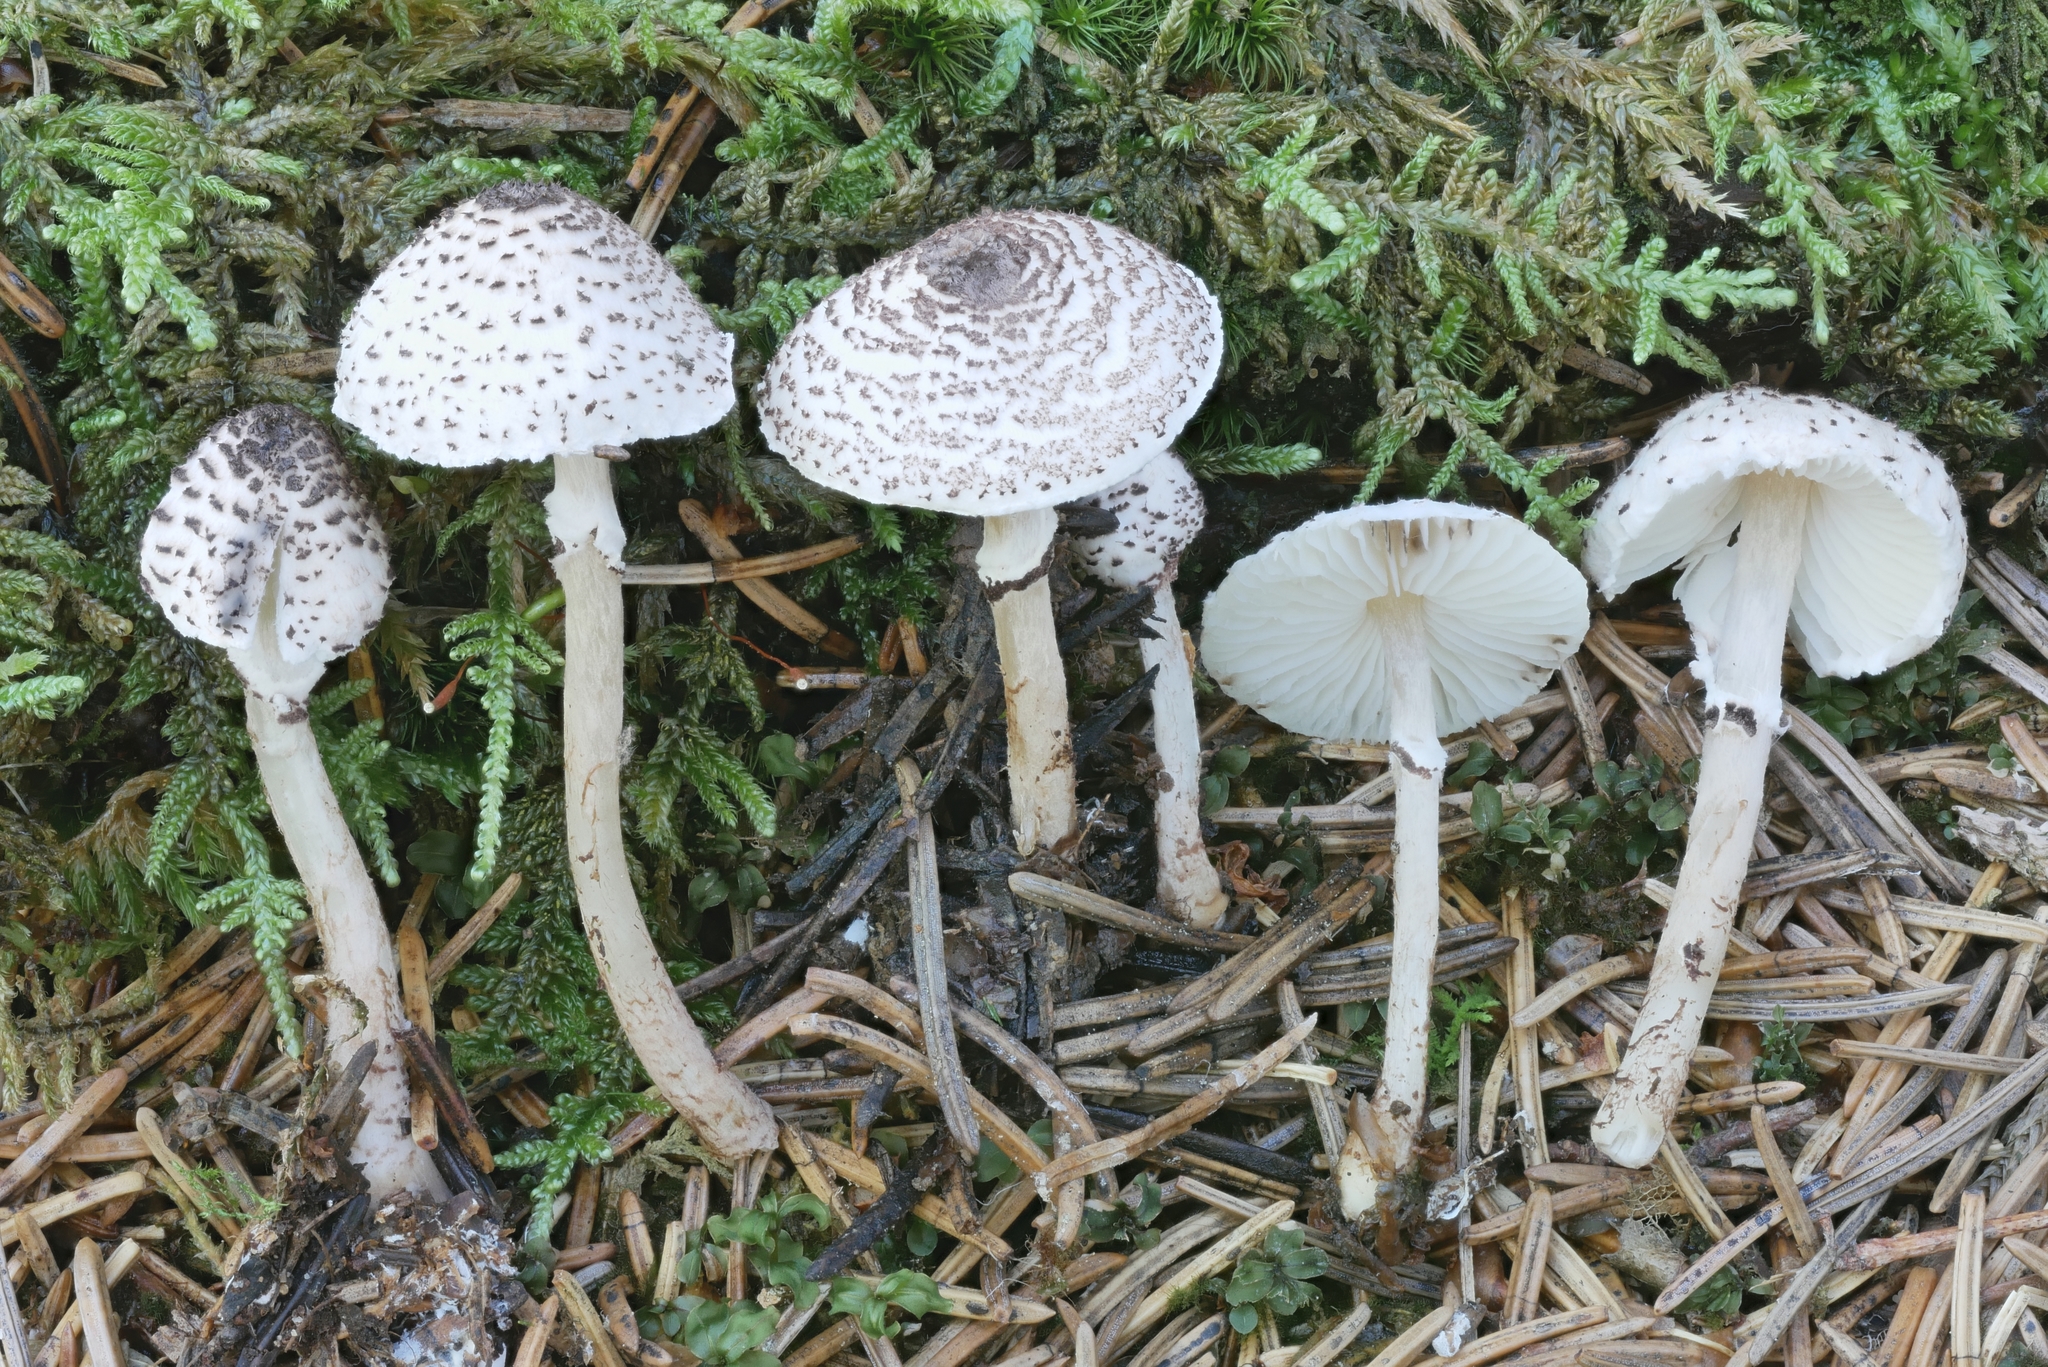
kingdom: Fungi
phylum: Basidiomycota
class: Agaricomycetes
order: Agaricales
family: Agaricaceae
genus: Lepiota
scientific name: Lepiota felina
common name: Cat dapperling
